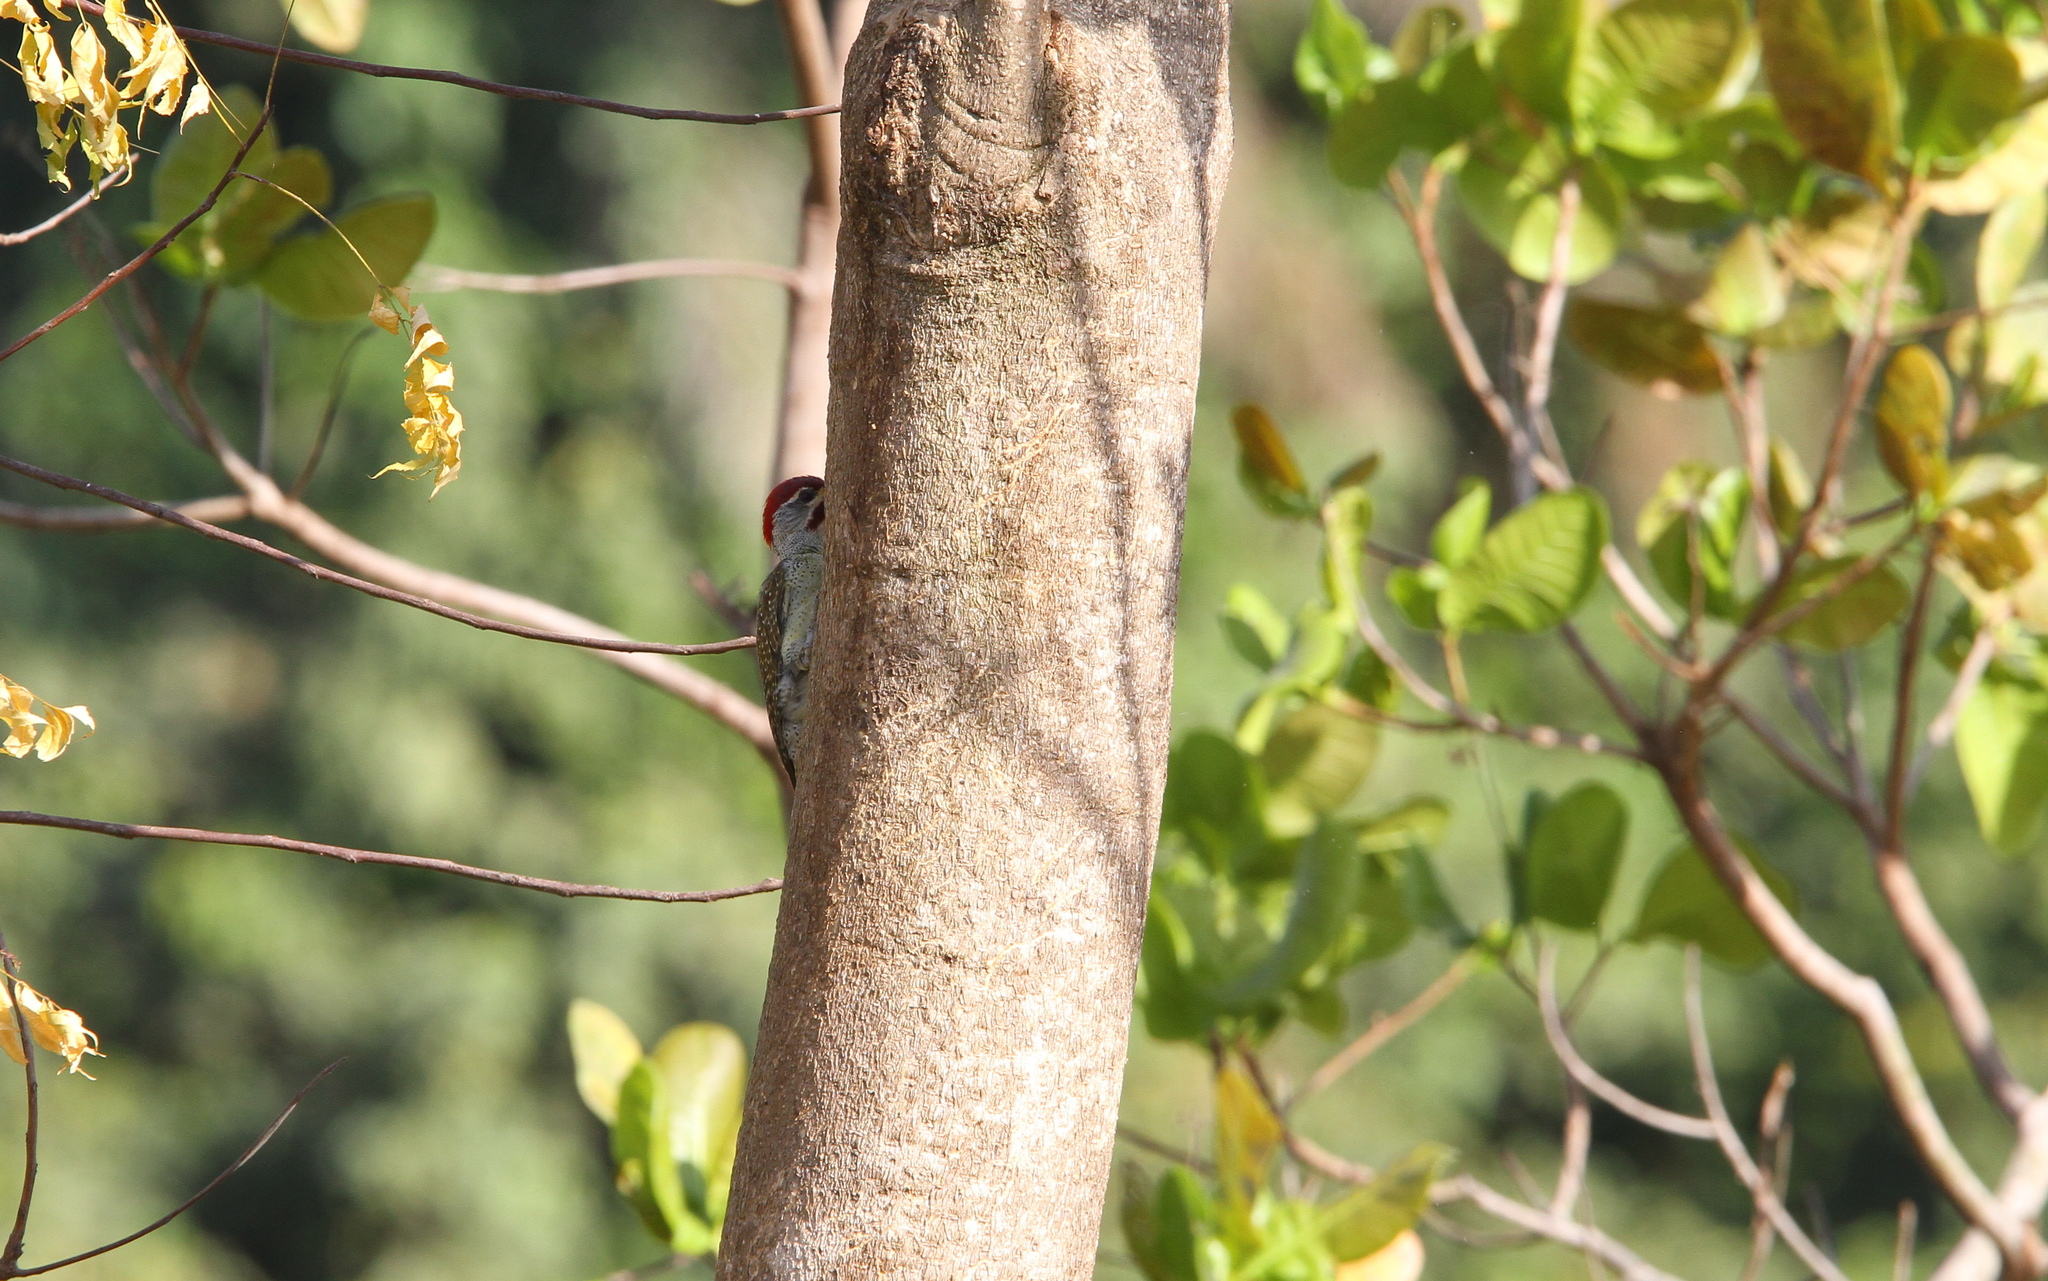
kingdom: Animalia
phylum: Chordata
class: Aves
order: Piciformes
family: Picidae
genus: Campethera
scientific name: Campethera punctuligera
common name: Fine-spotted woodpecker
